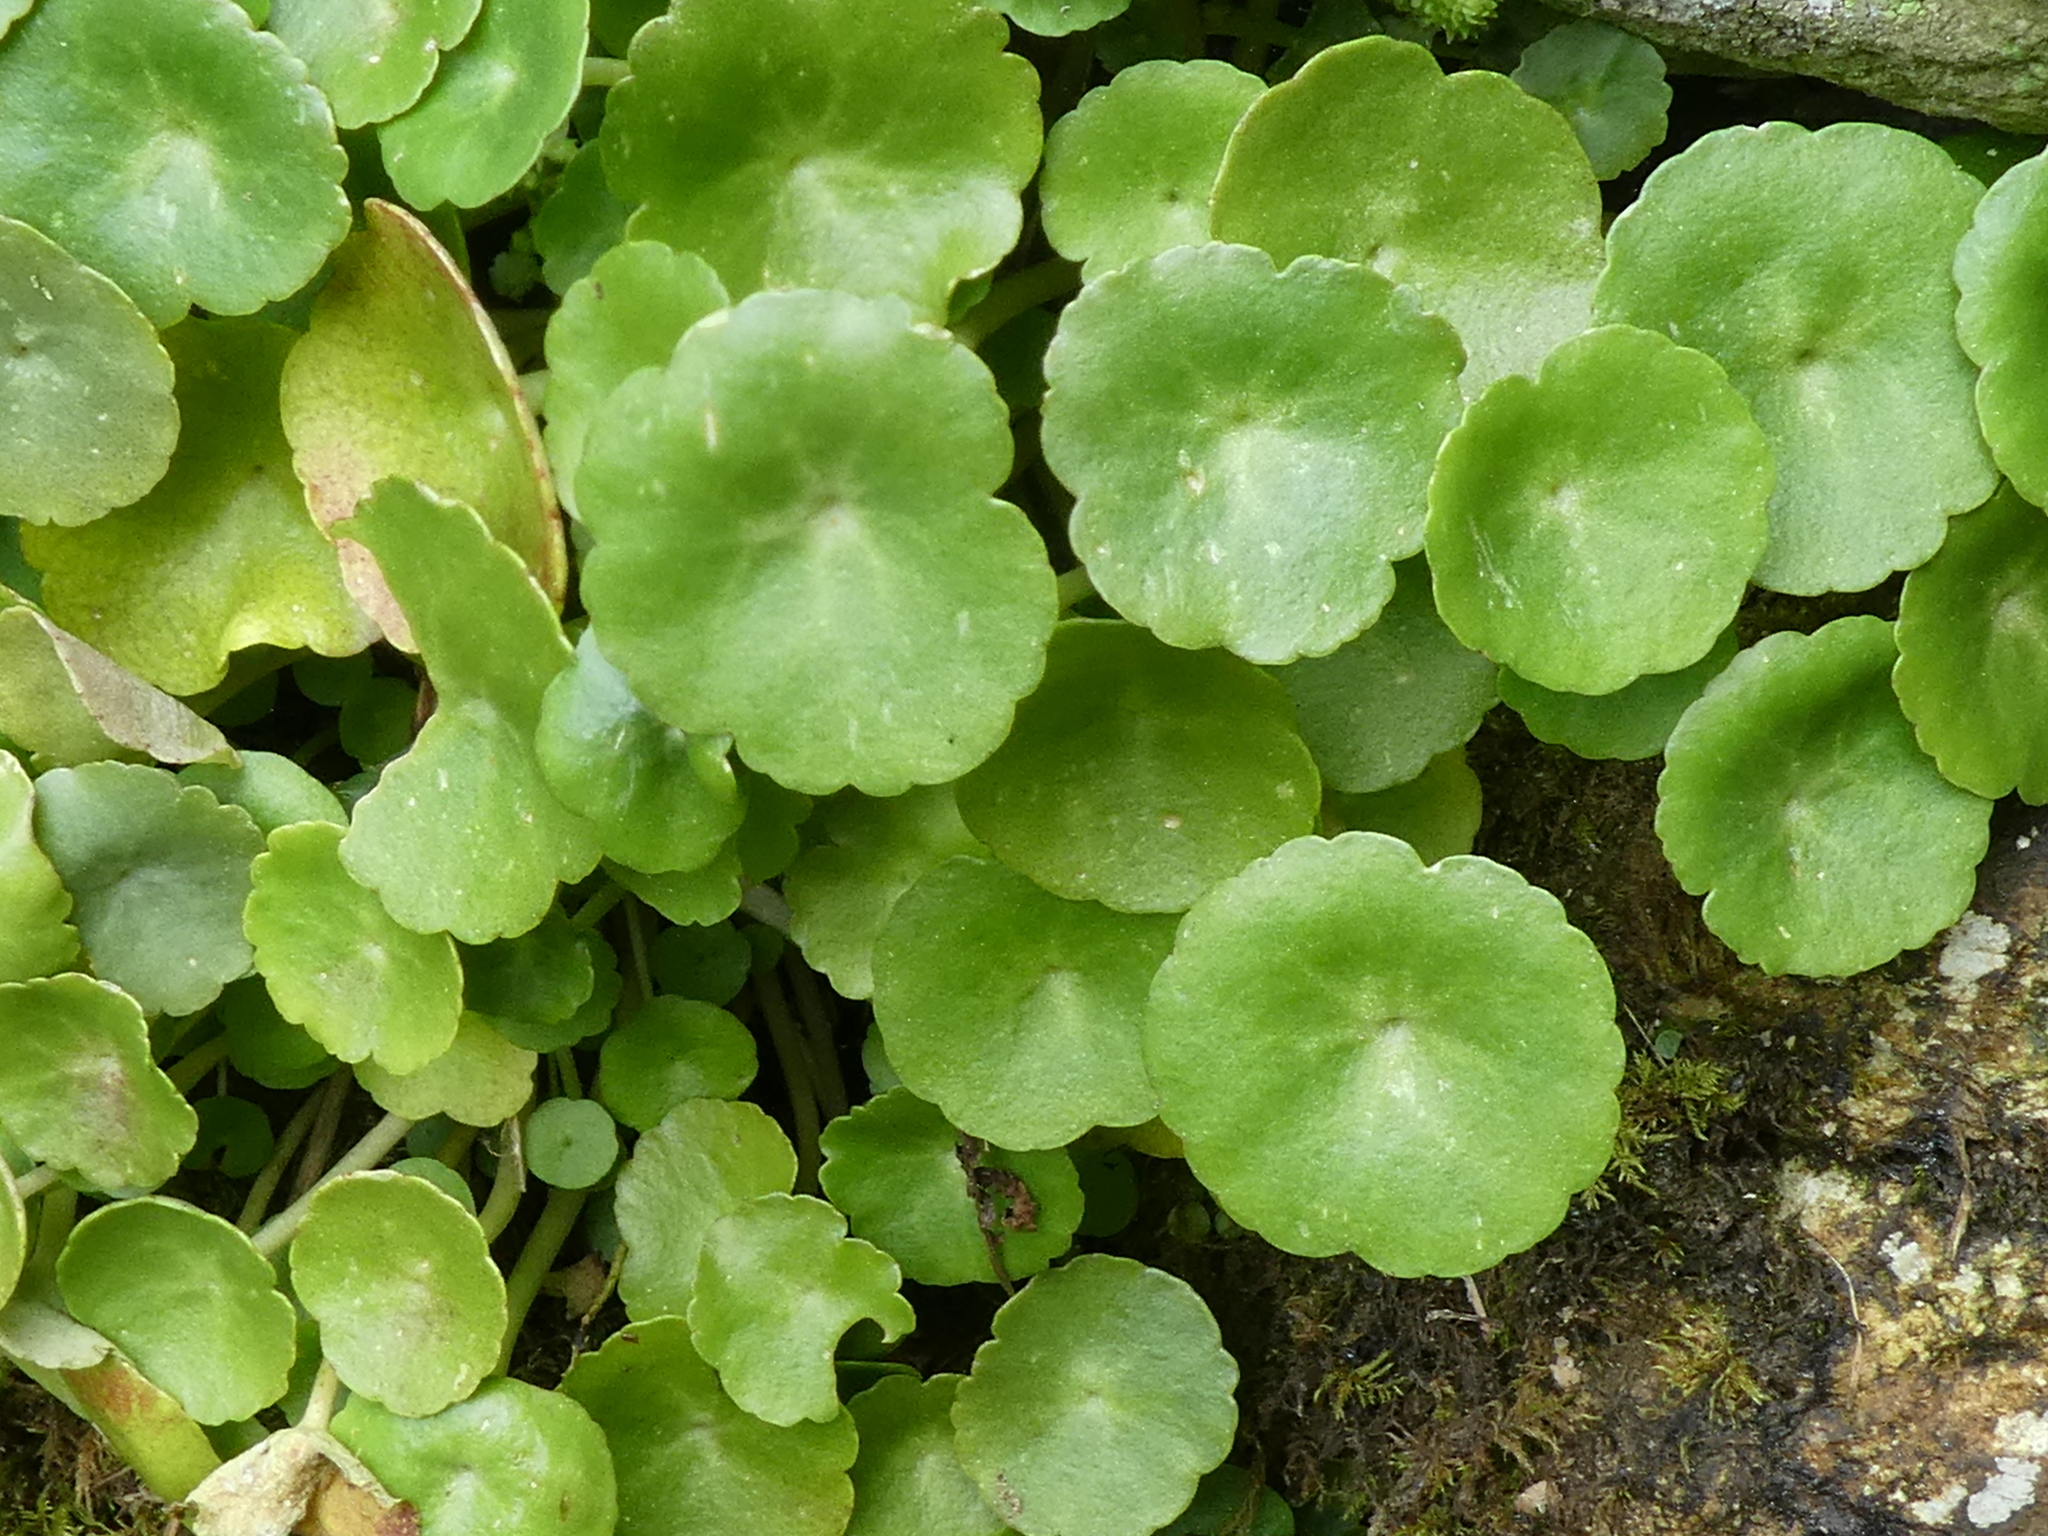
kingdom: Plantae
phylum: Tracheophyta
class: Magnoliopsida
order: Saxifragales
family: Crassulaceae
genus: Umbilicus
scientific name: Umbilicus rupestris
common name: Navelwort
